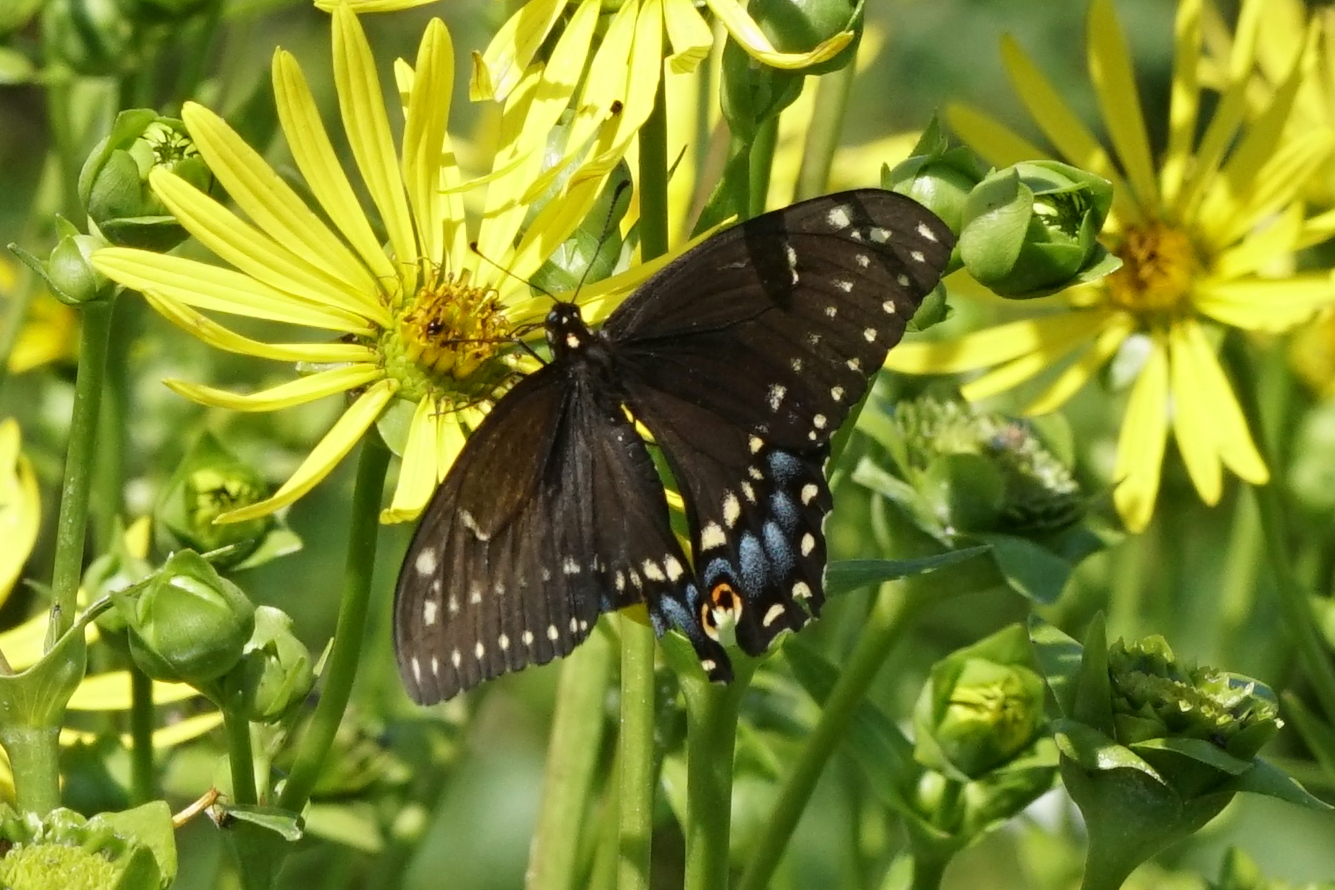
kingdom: Animalia
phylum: Arthropoda
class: Insecta
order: Lepidoptera
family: Papilionidae
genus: Papilio
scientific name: Papilio polyxenes
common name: Black swallowtail
